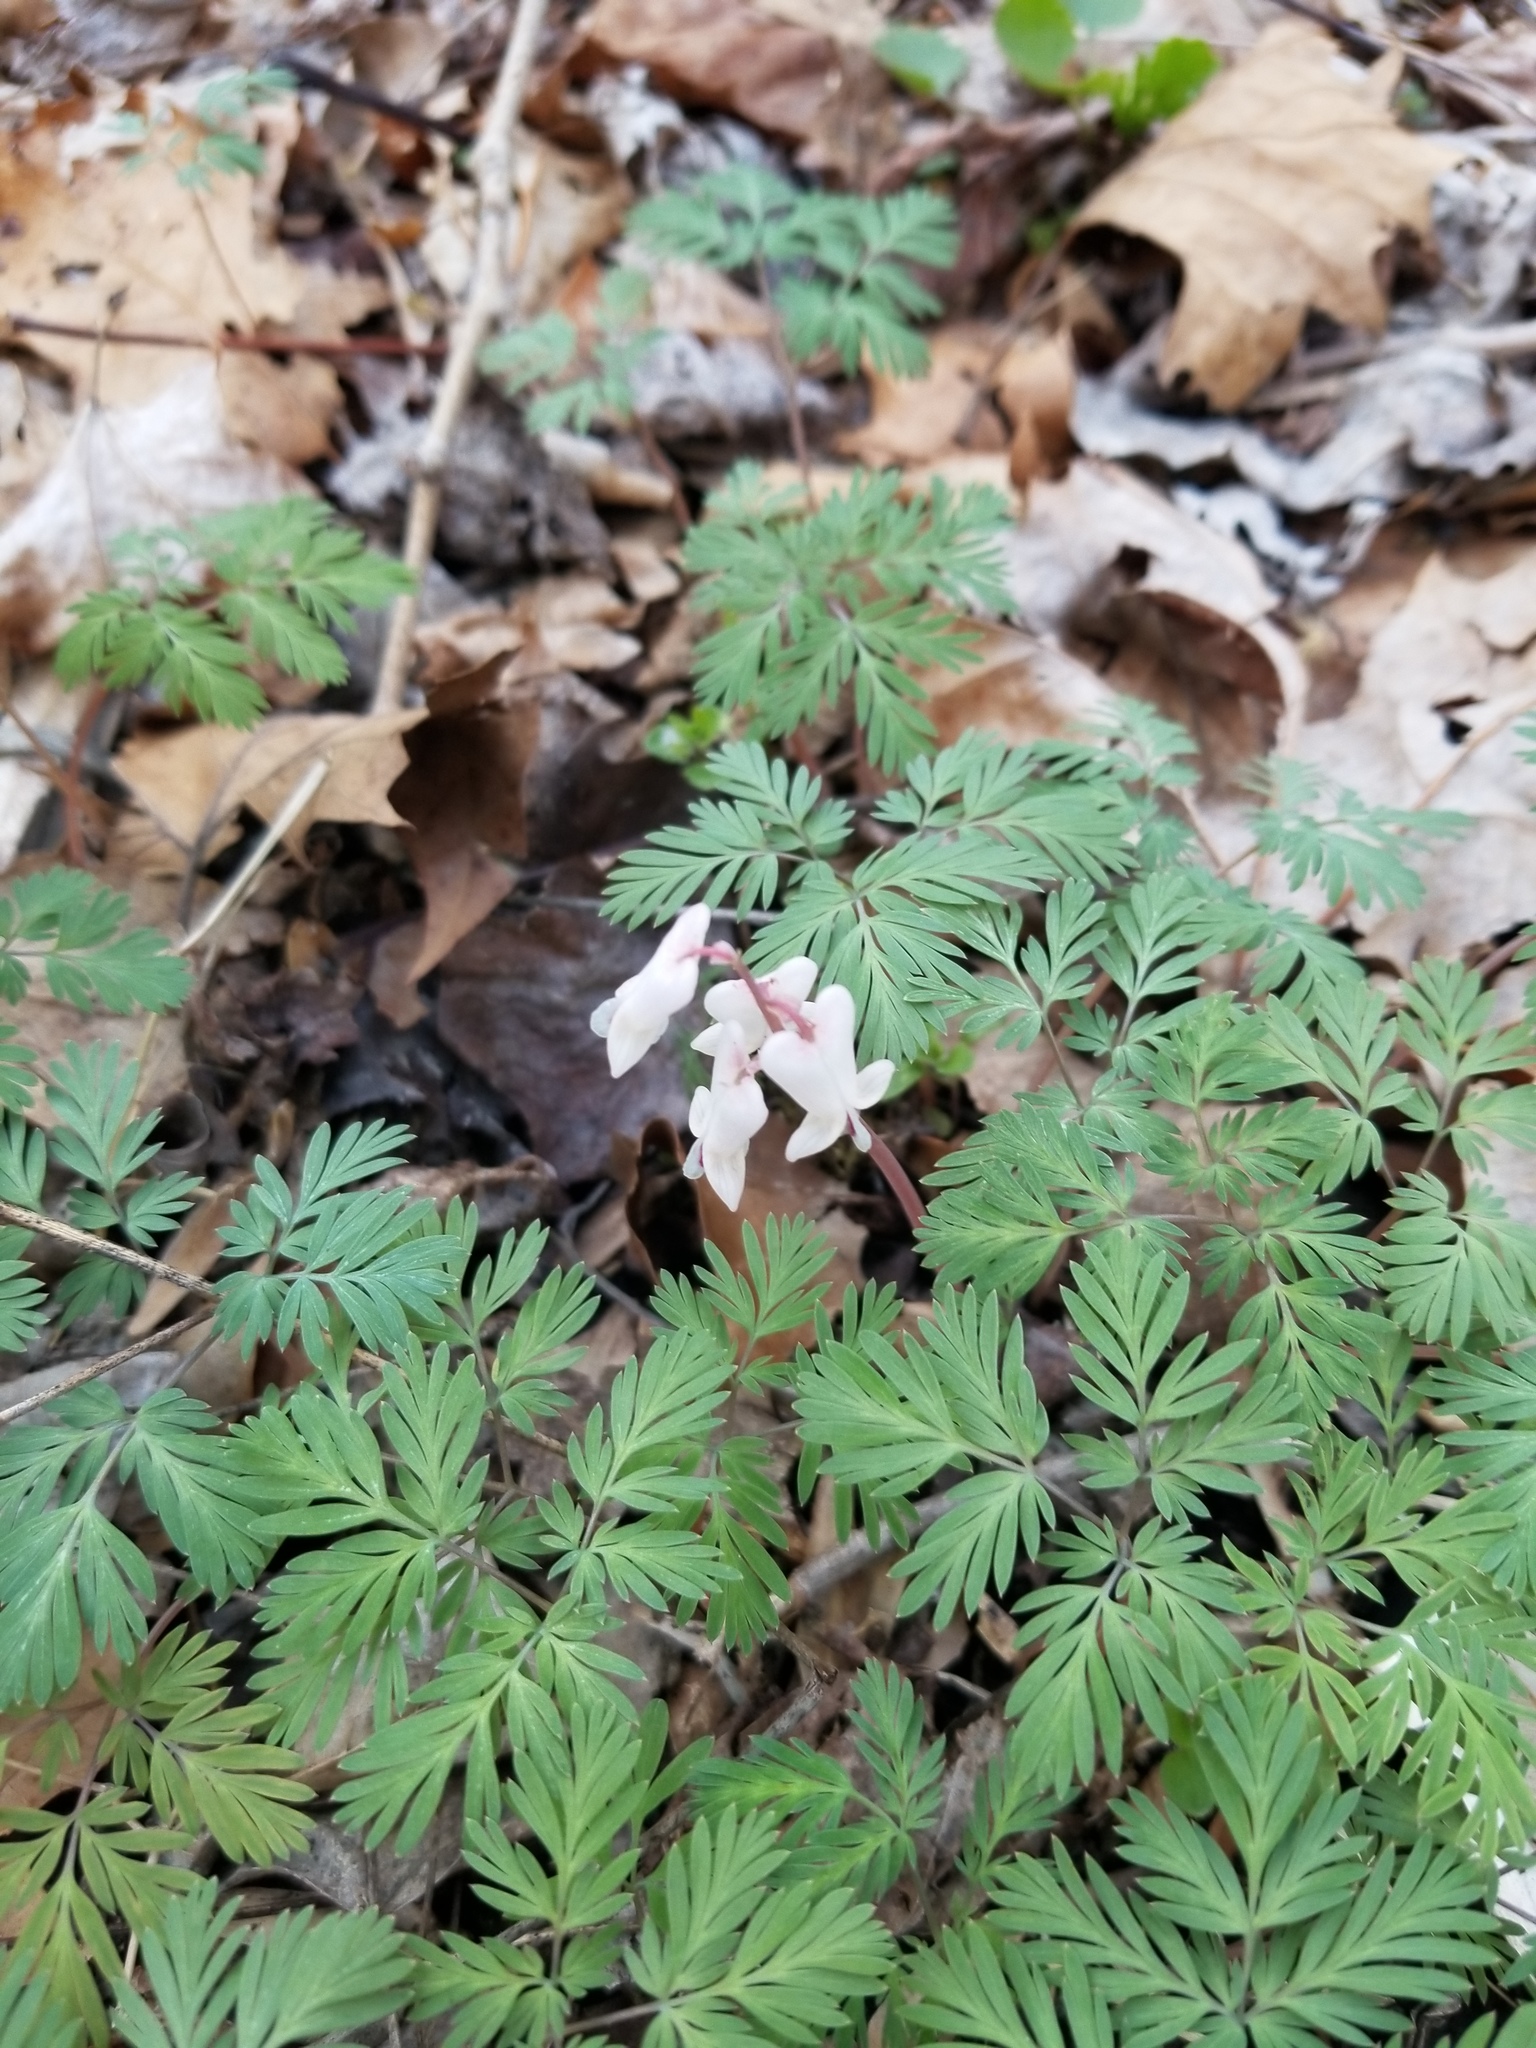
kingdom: Plantae
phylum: Tracheophyta
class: Magnoliopsida
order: Ranunculales
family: Papaveraceae
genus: Dicentra
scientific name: Dicentra canadensis
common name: Squirrel-corn
